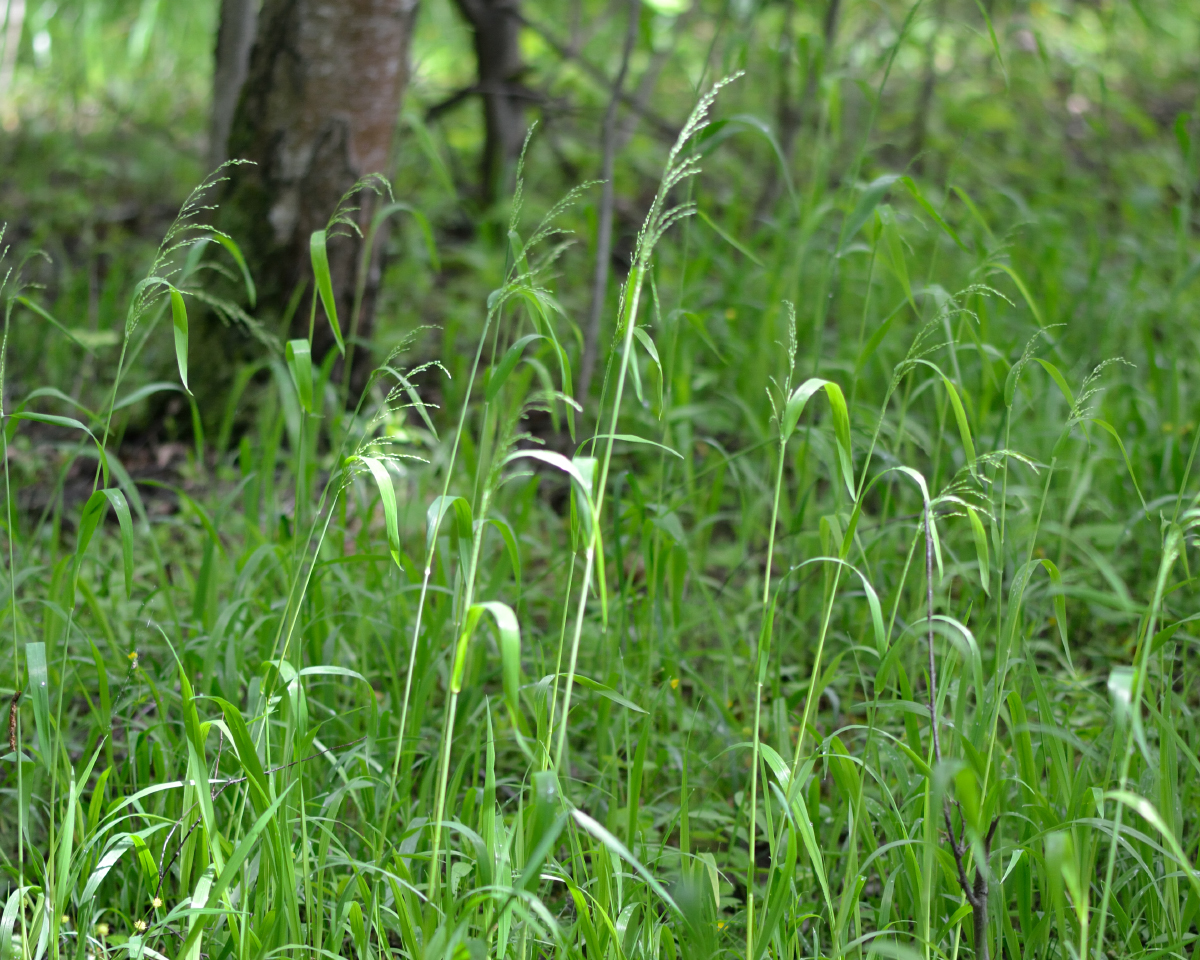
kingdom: Plantae
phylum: Tracheophyta
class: Liliopsida
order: Poales
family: Poaceae
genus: Milium
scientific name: Milium effusum
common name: Wood millet
